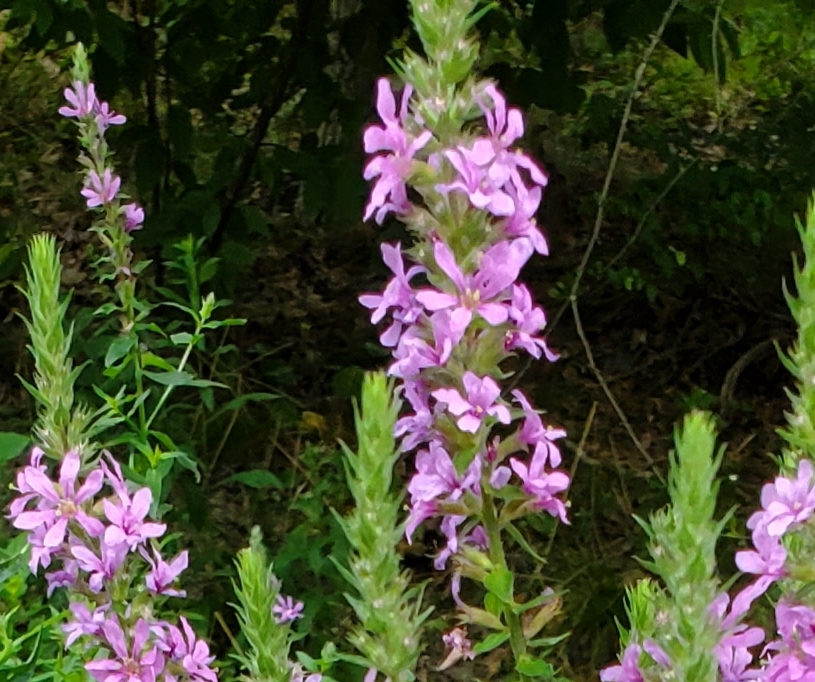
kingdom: Plantae
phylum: Tracheophyta
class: Magnoliopsida
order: Myrtales
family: Lythraceae
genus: Lythrum
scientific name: Lythrum salicaria
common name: Purple loosestrife
